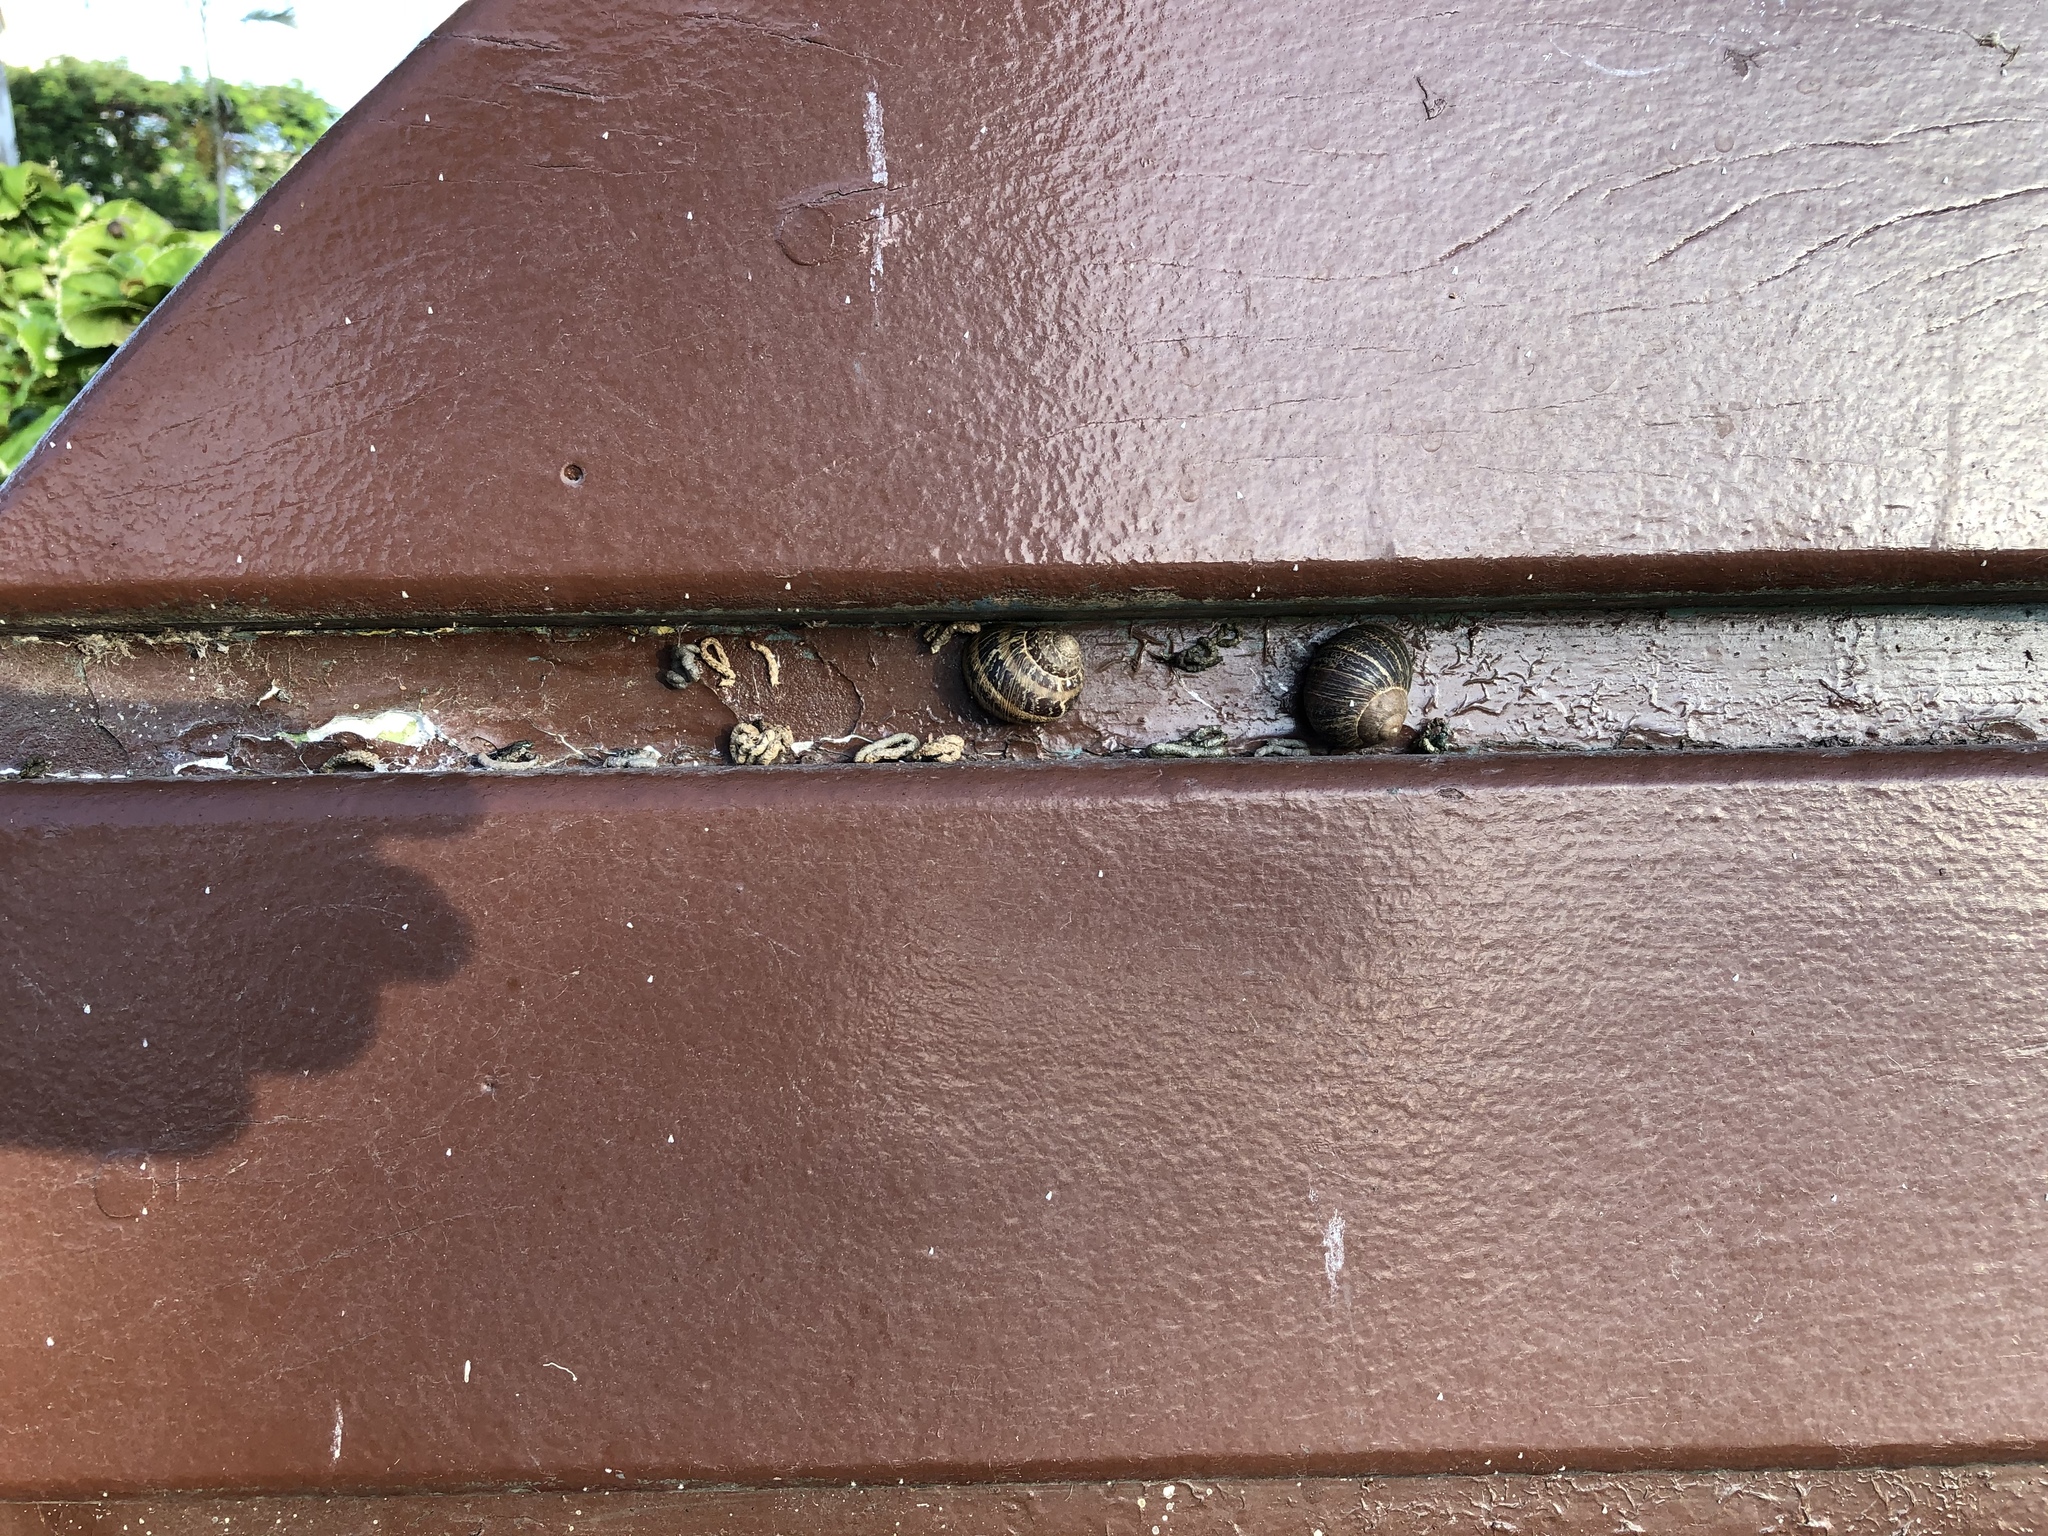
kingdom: Animalia
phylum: Mollusca
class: Gastropoda
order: Stylommatophora
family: Helicidae
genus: Cornu
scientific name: Cornu aspersum
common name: Brown garden snail
